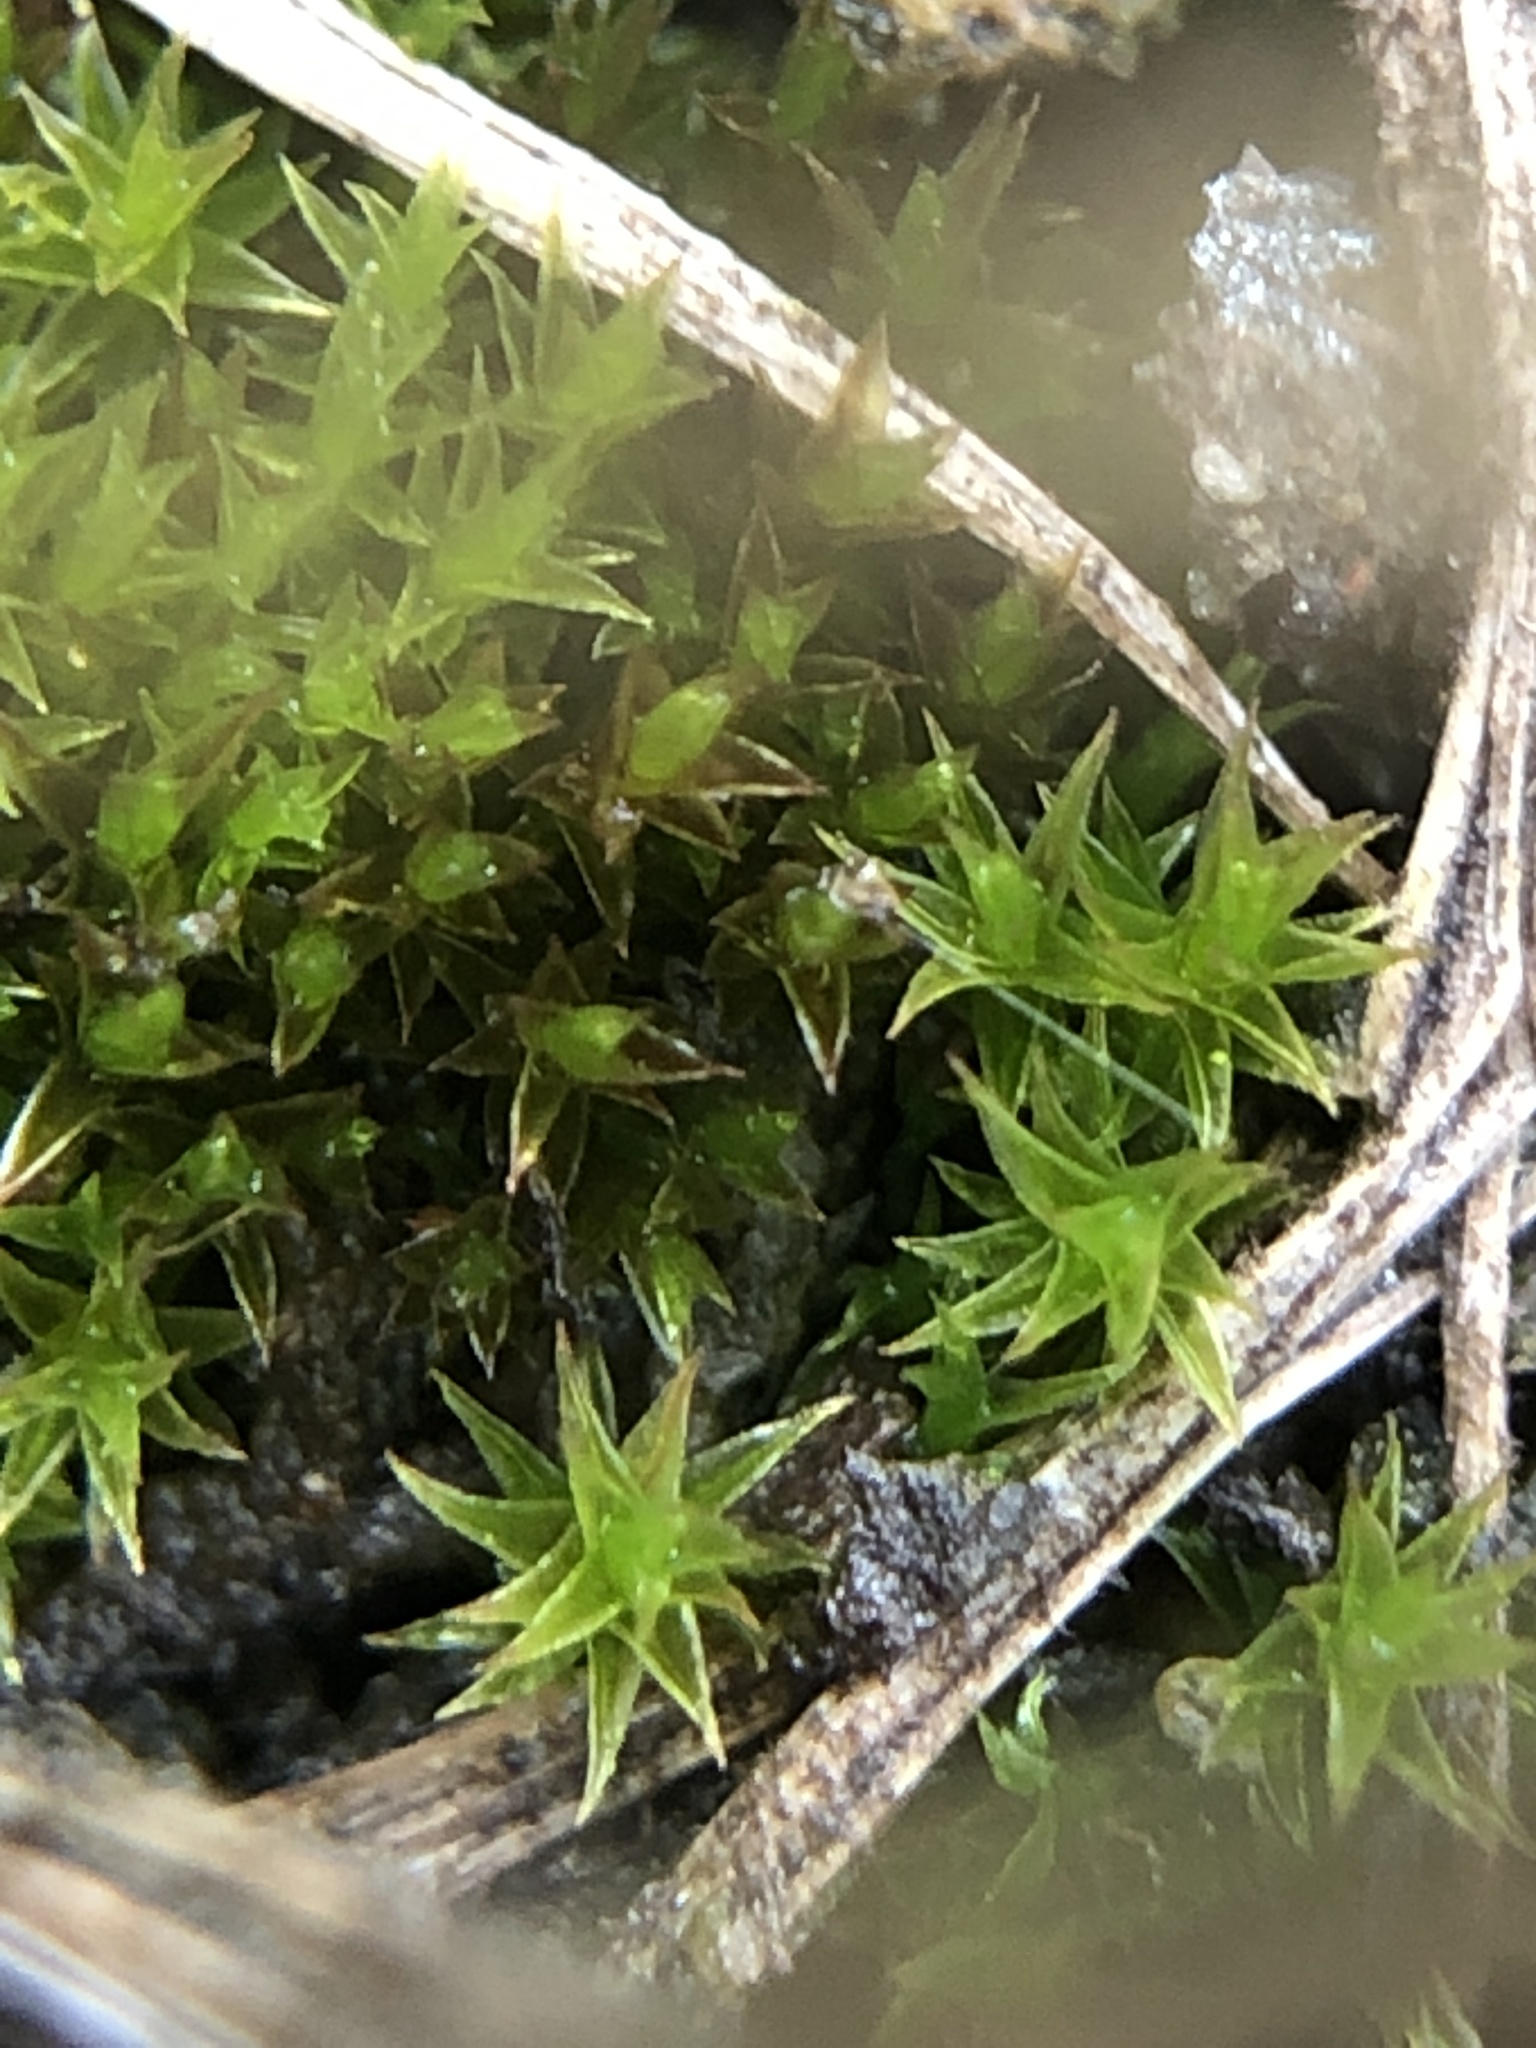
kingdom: Plantae
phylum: Bryophyta
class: Bryopsida
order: Dicranales
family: Ditrichaceae
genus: Ceratodon
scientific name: Ceratodon purpureus
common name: Redshank
